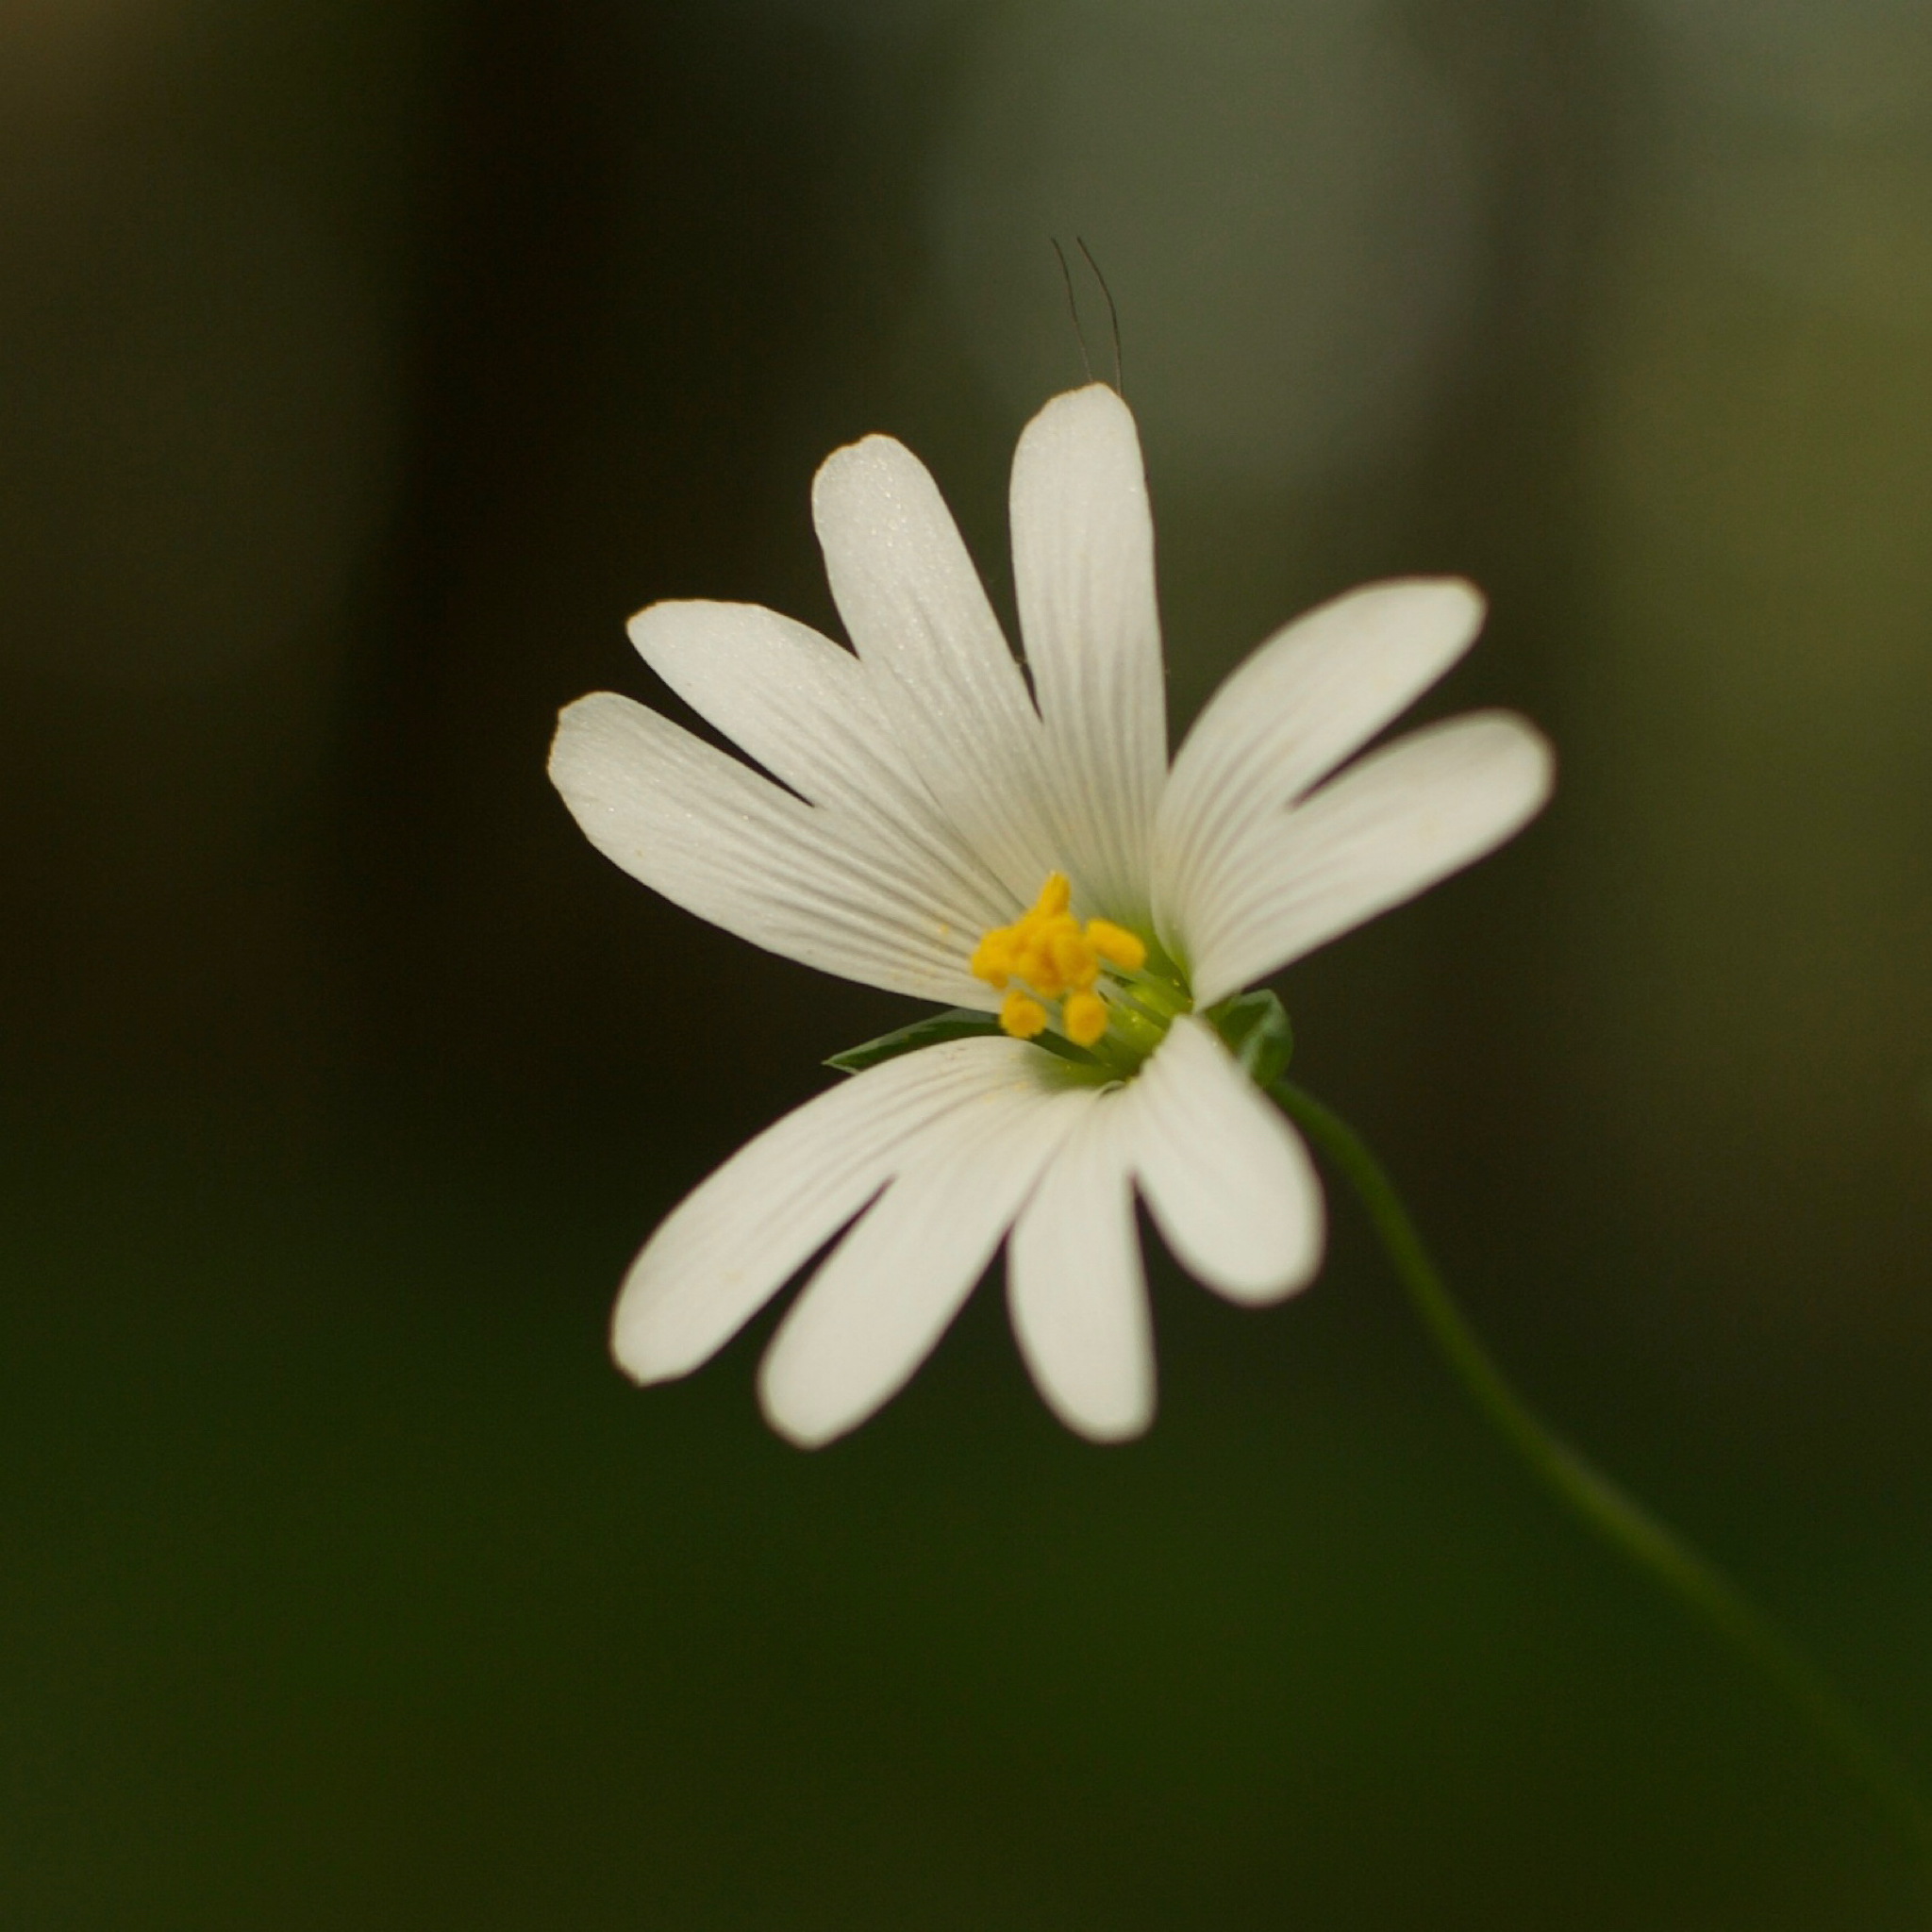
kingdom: Plantae
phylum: Tracheophyta
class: Magnoliopsida
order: Caryophyllales
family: Caryophyllaceae
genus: Rabelera
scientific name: Rabelera holostea
